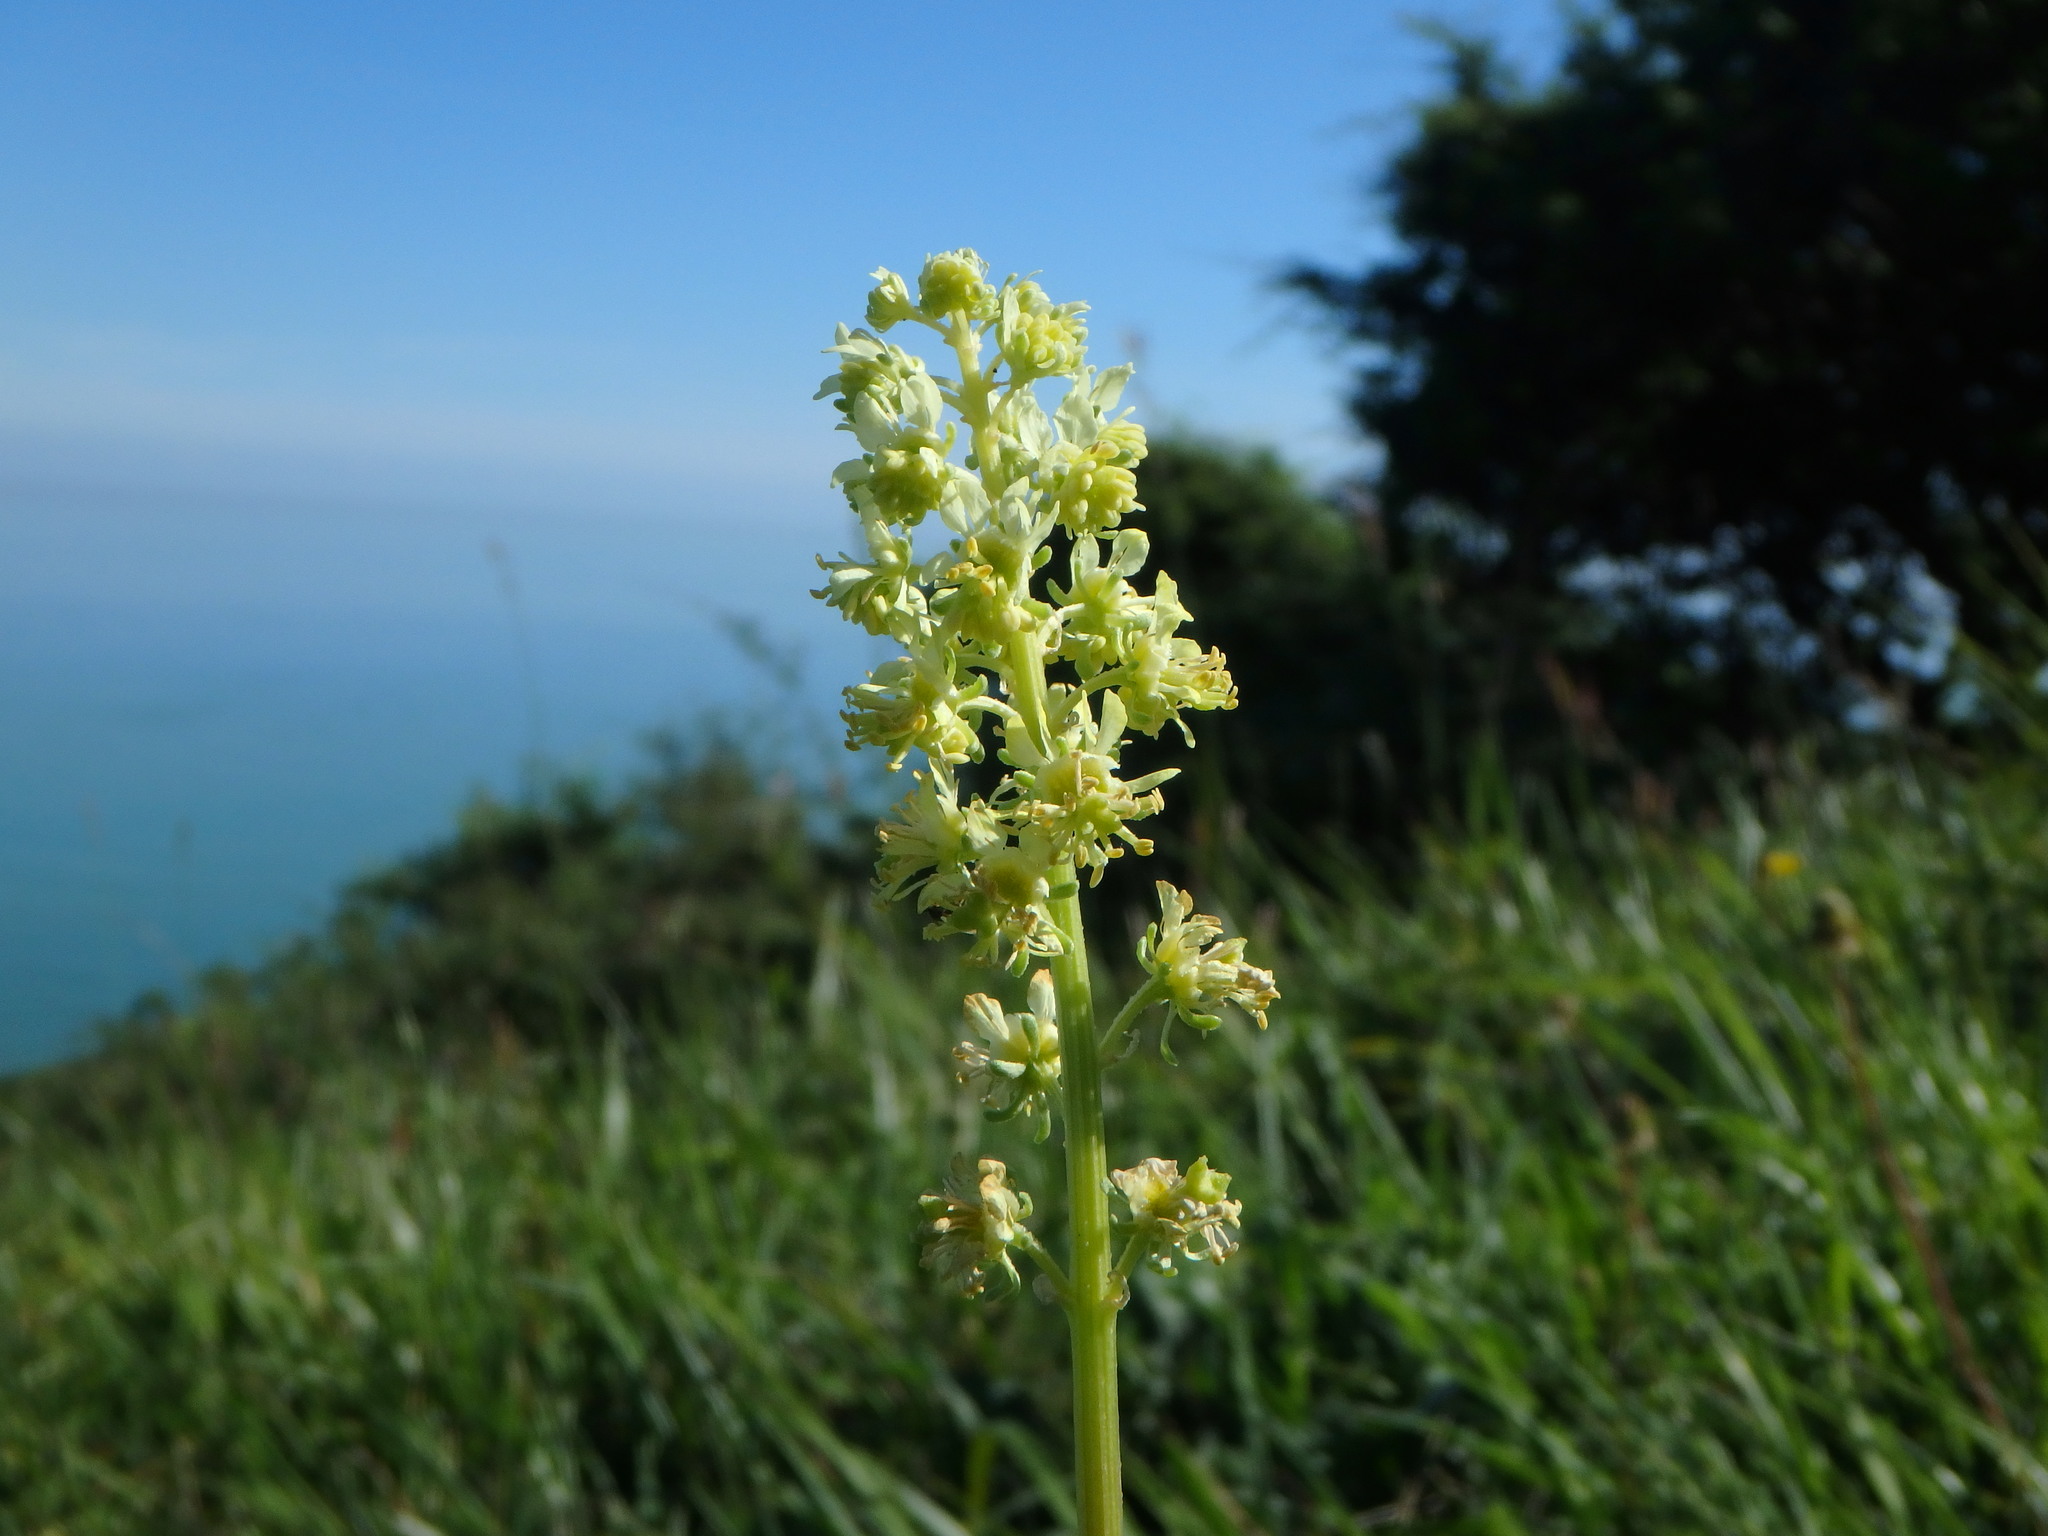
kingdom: Plantae
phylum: Tracheophyta
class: Magnoliopsida
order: Brassicales
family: Resedaceae
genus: Reseda
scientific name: Reseda lutea
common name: Wild mignonette
